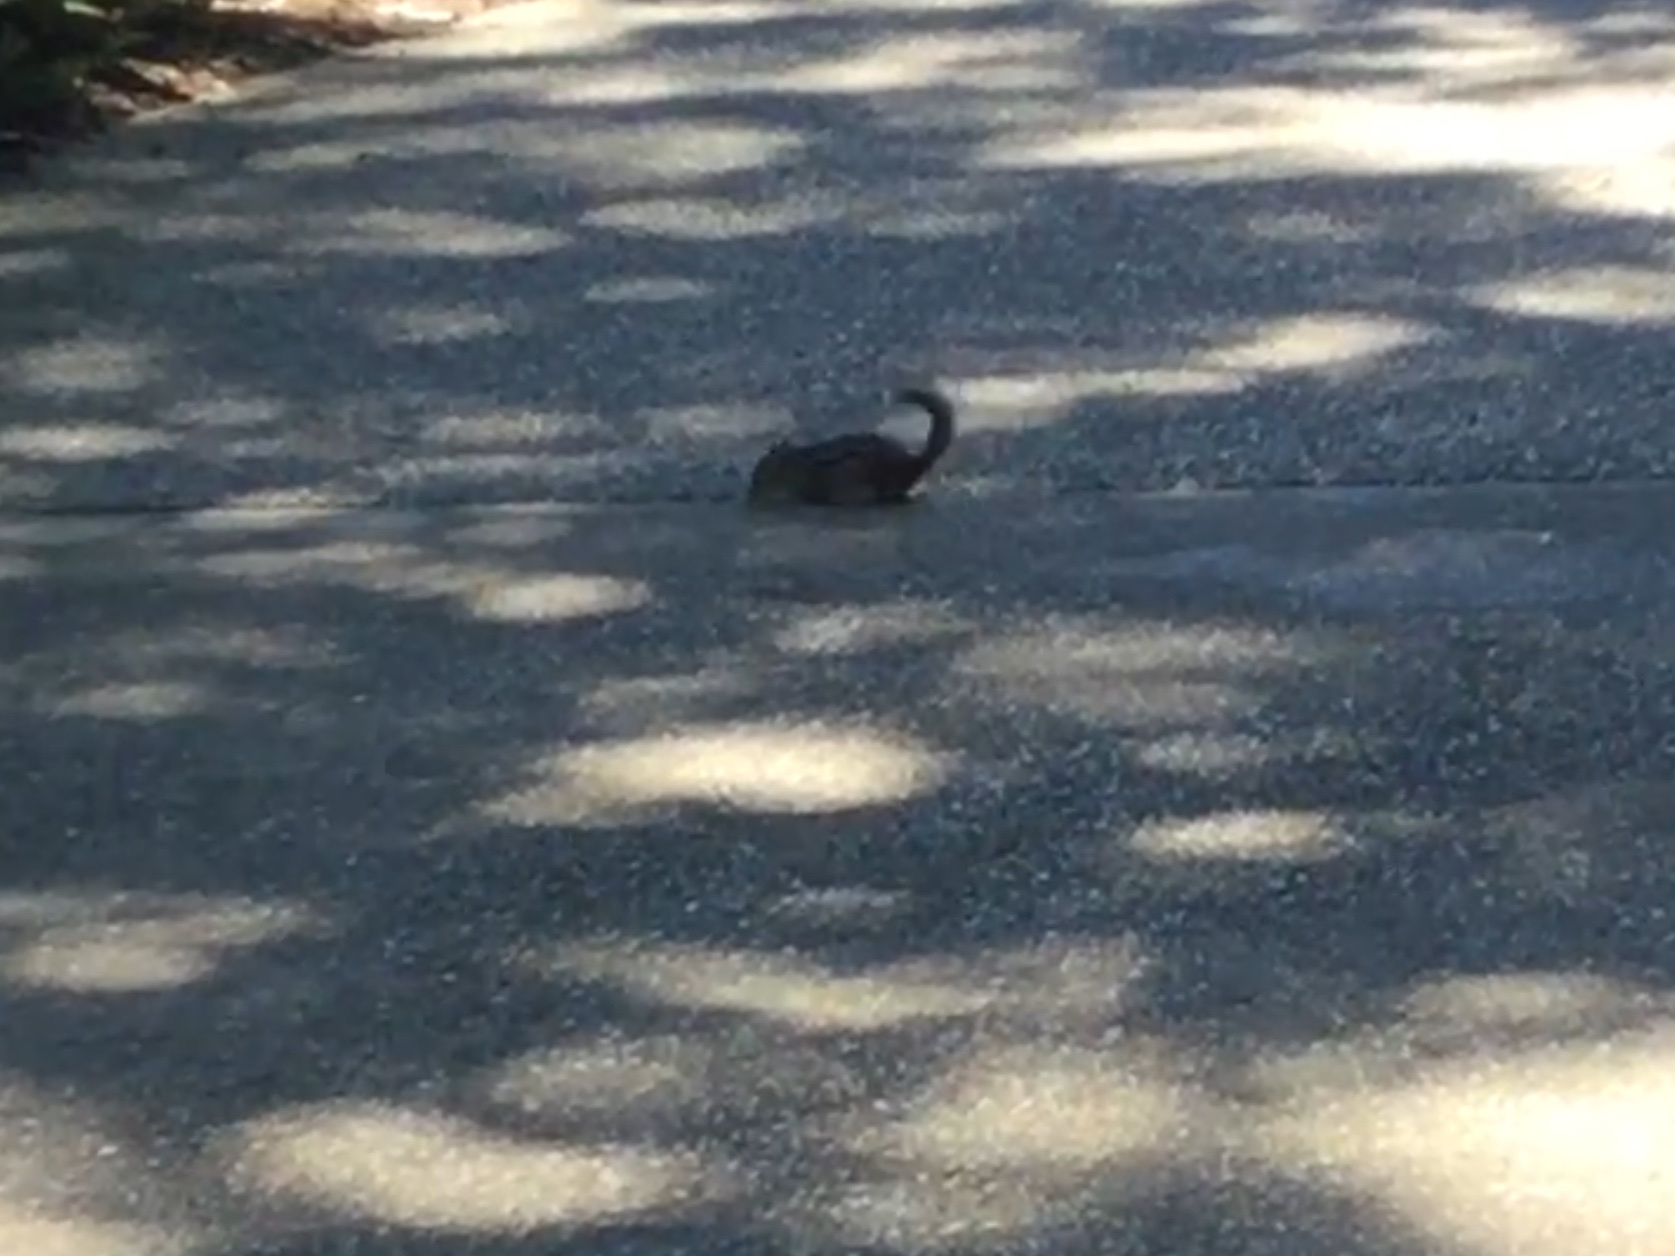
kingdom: Animalia
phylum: Chordata
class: Mammalia
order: Rodentia
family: Sciuridae
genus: Tamias
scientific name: Tamias striatus
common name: Eastern chipmunk
